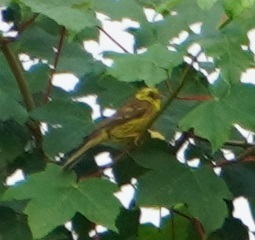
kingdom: Animalia
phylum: Chordata
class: Aves
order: Passeriformes
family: Emberizidae
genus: Emberiza
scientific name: Emberiza citrinella
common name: Yellowhammer
